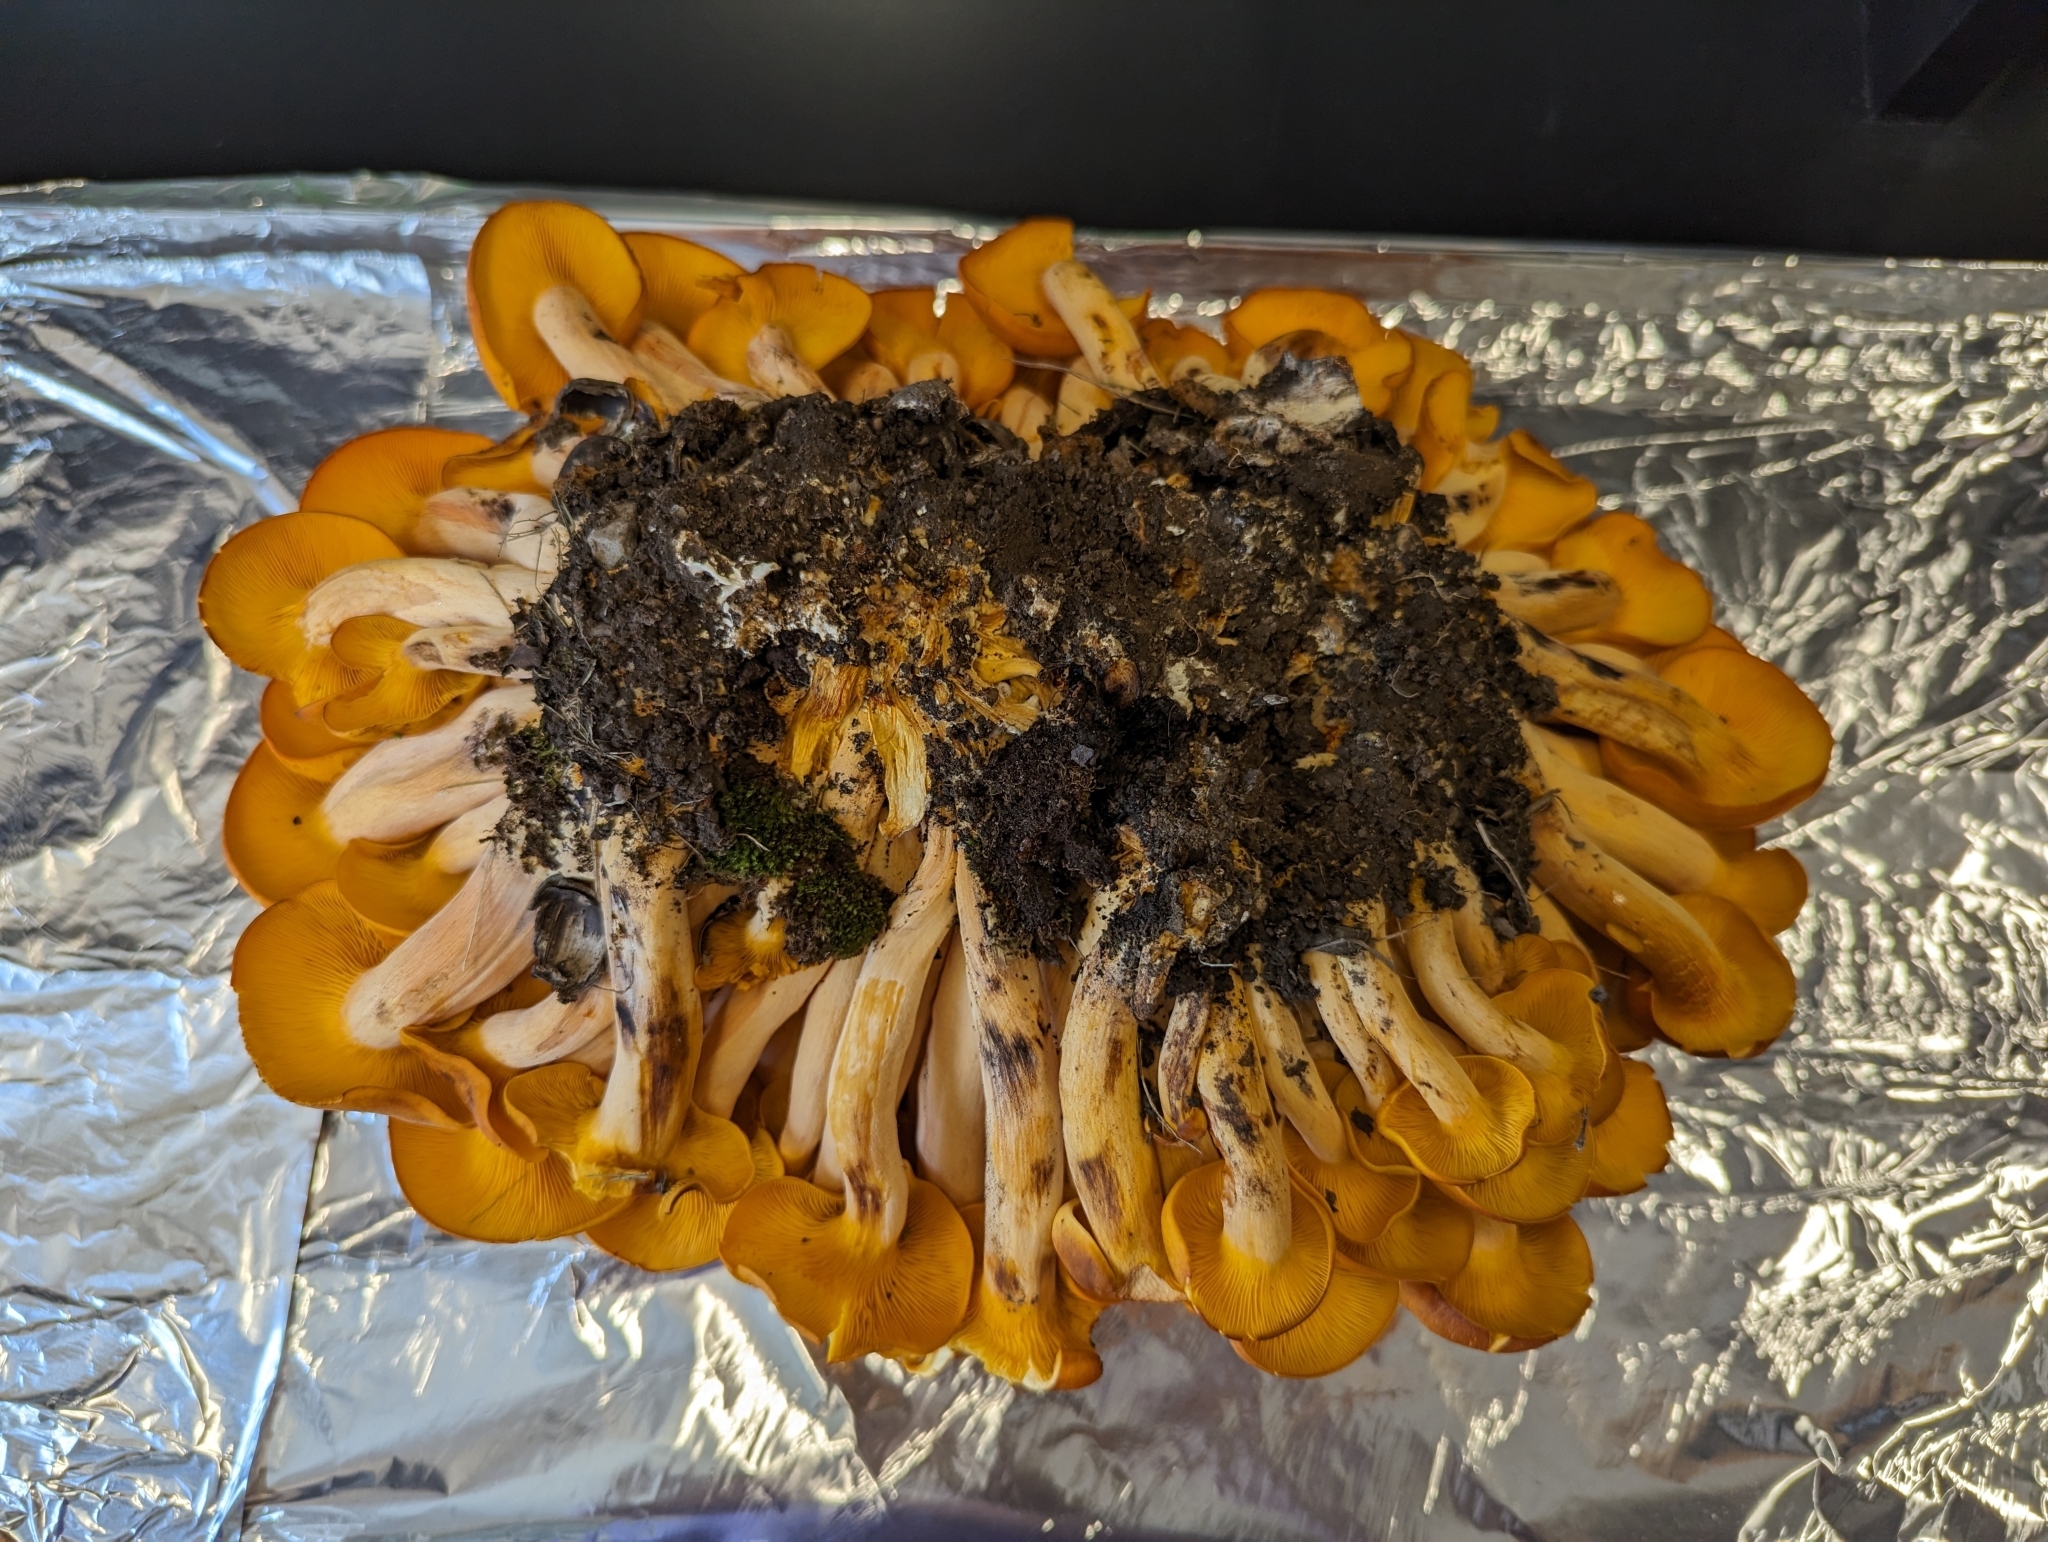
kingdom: Fungi
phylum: Basidiomycota
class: Agaricomycetes
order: Agaricales
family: Omphalotaceae
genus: Omphalotus
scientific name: Omphalotus illudens
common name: Jack o lantern
